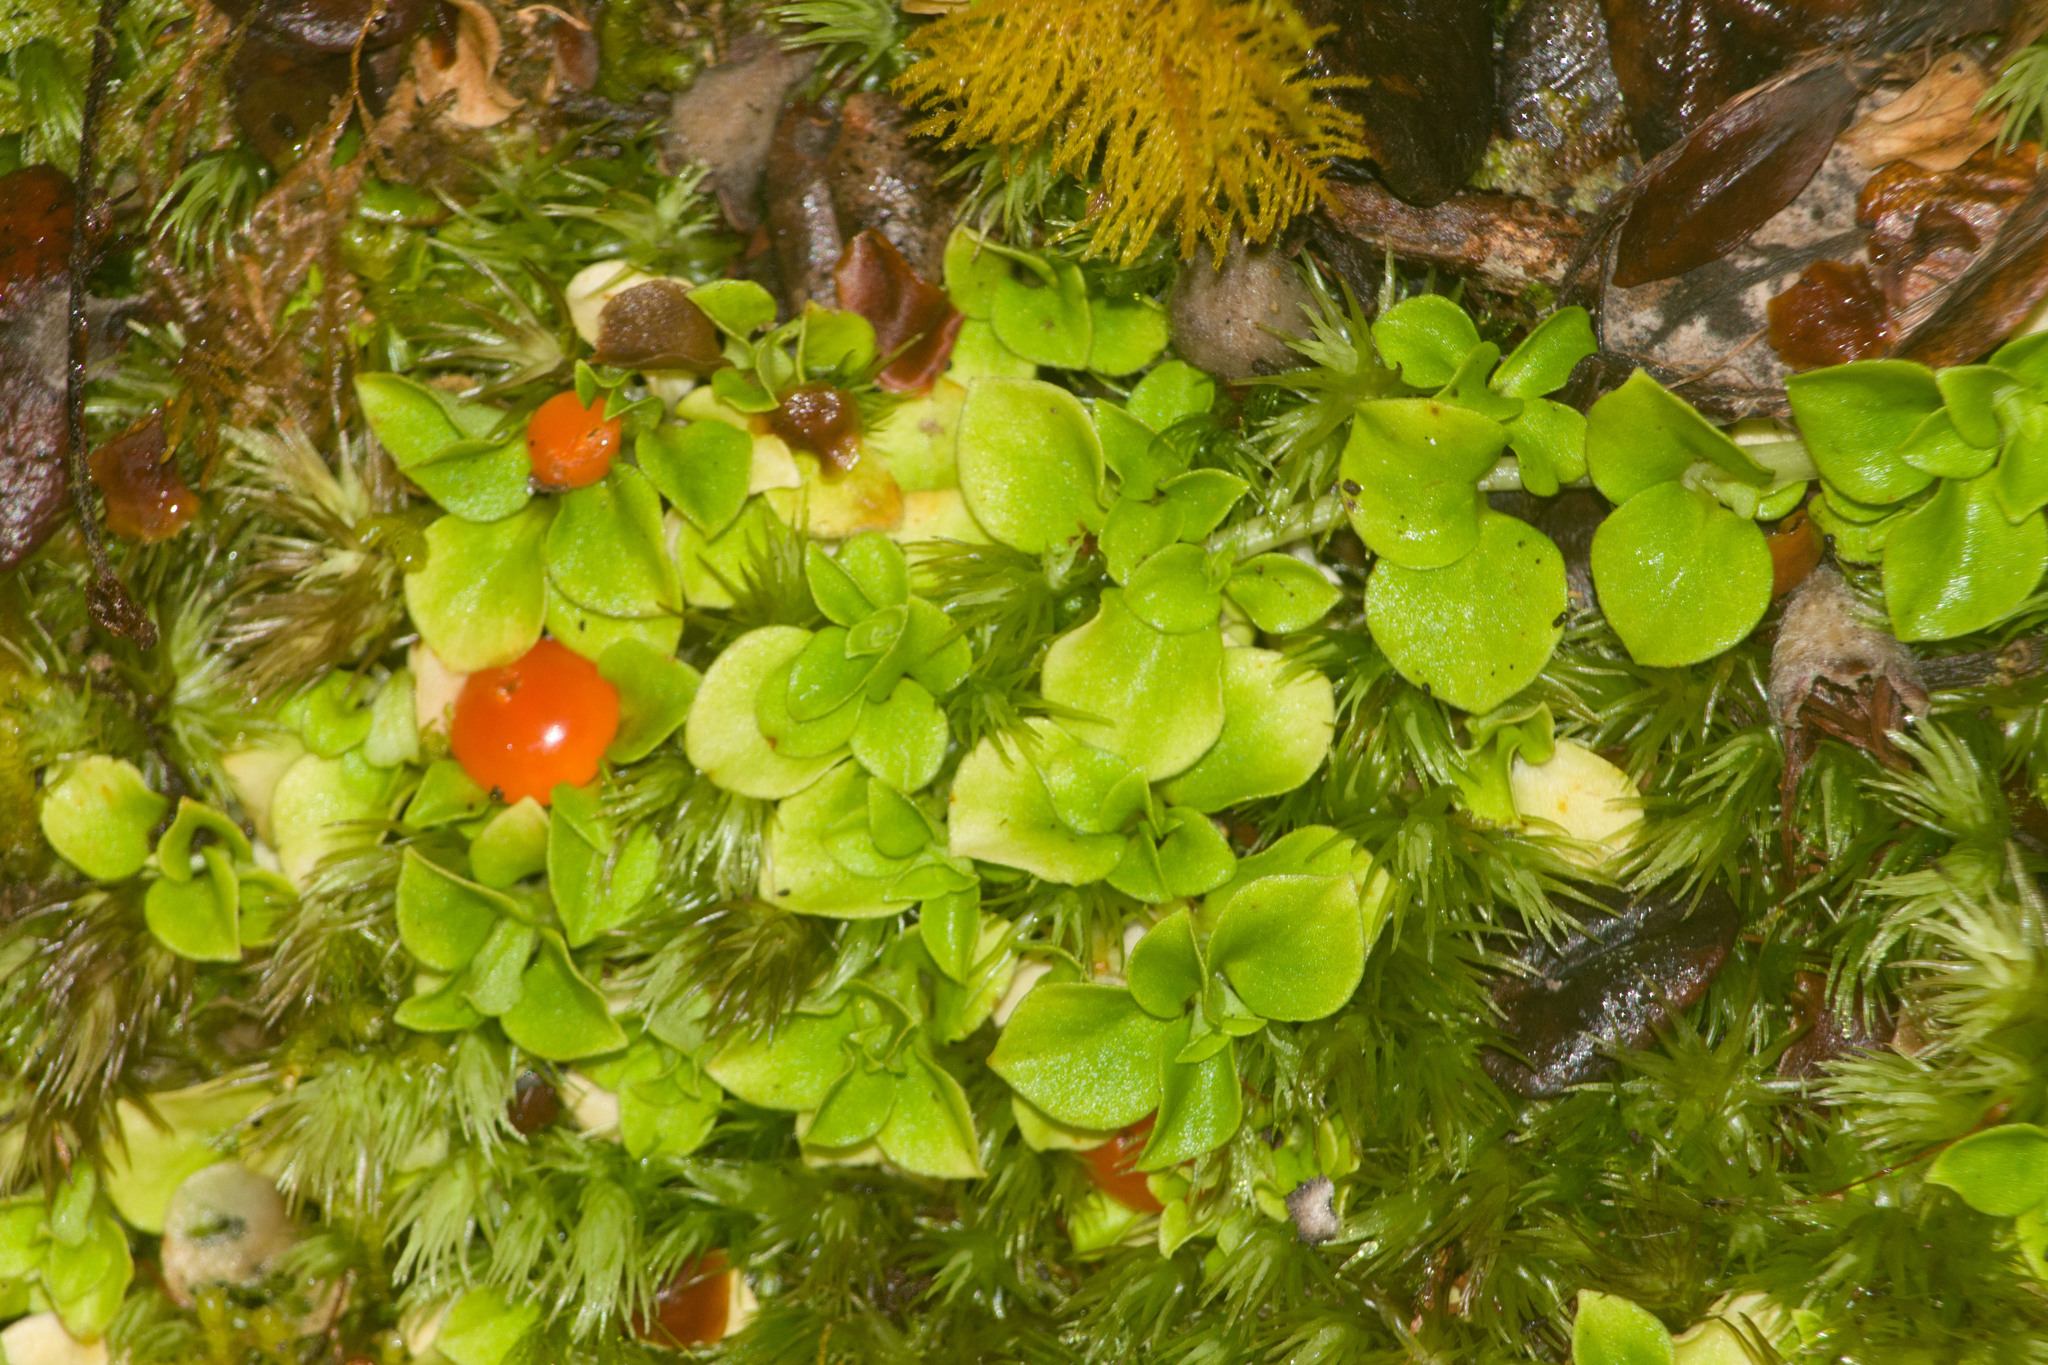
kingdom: Plantae
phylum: Tracheophyta
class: Magnoliopsida
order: Gentianales
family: Rubiaceae
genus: Nertera
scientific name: Nertera granadensis
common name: Beadplant
